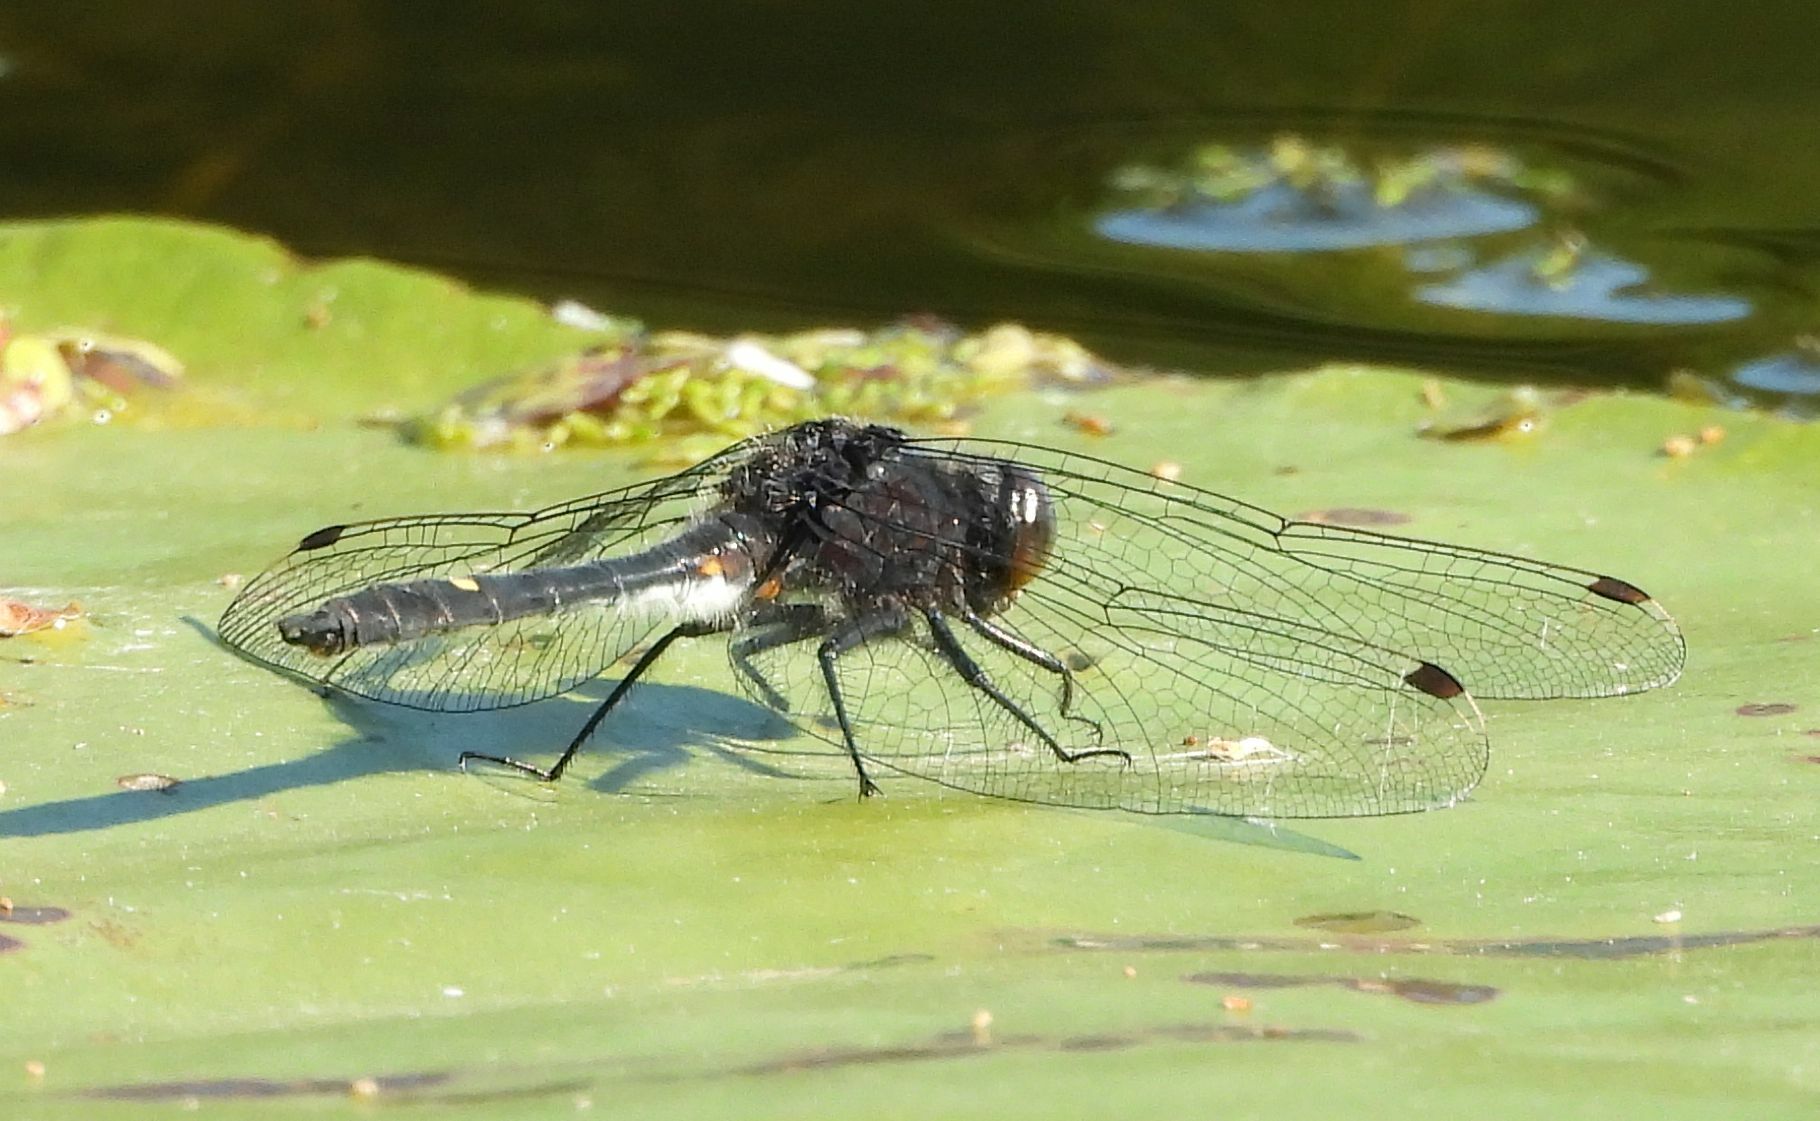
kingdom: Animalia
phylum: Arthropoda
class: Insecta
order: Odonata
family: Libellulidae
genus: Leucorrhinia
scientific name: Leucorrhinia intacta
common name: Dot-tailed whiteface
